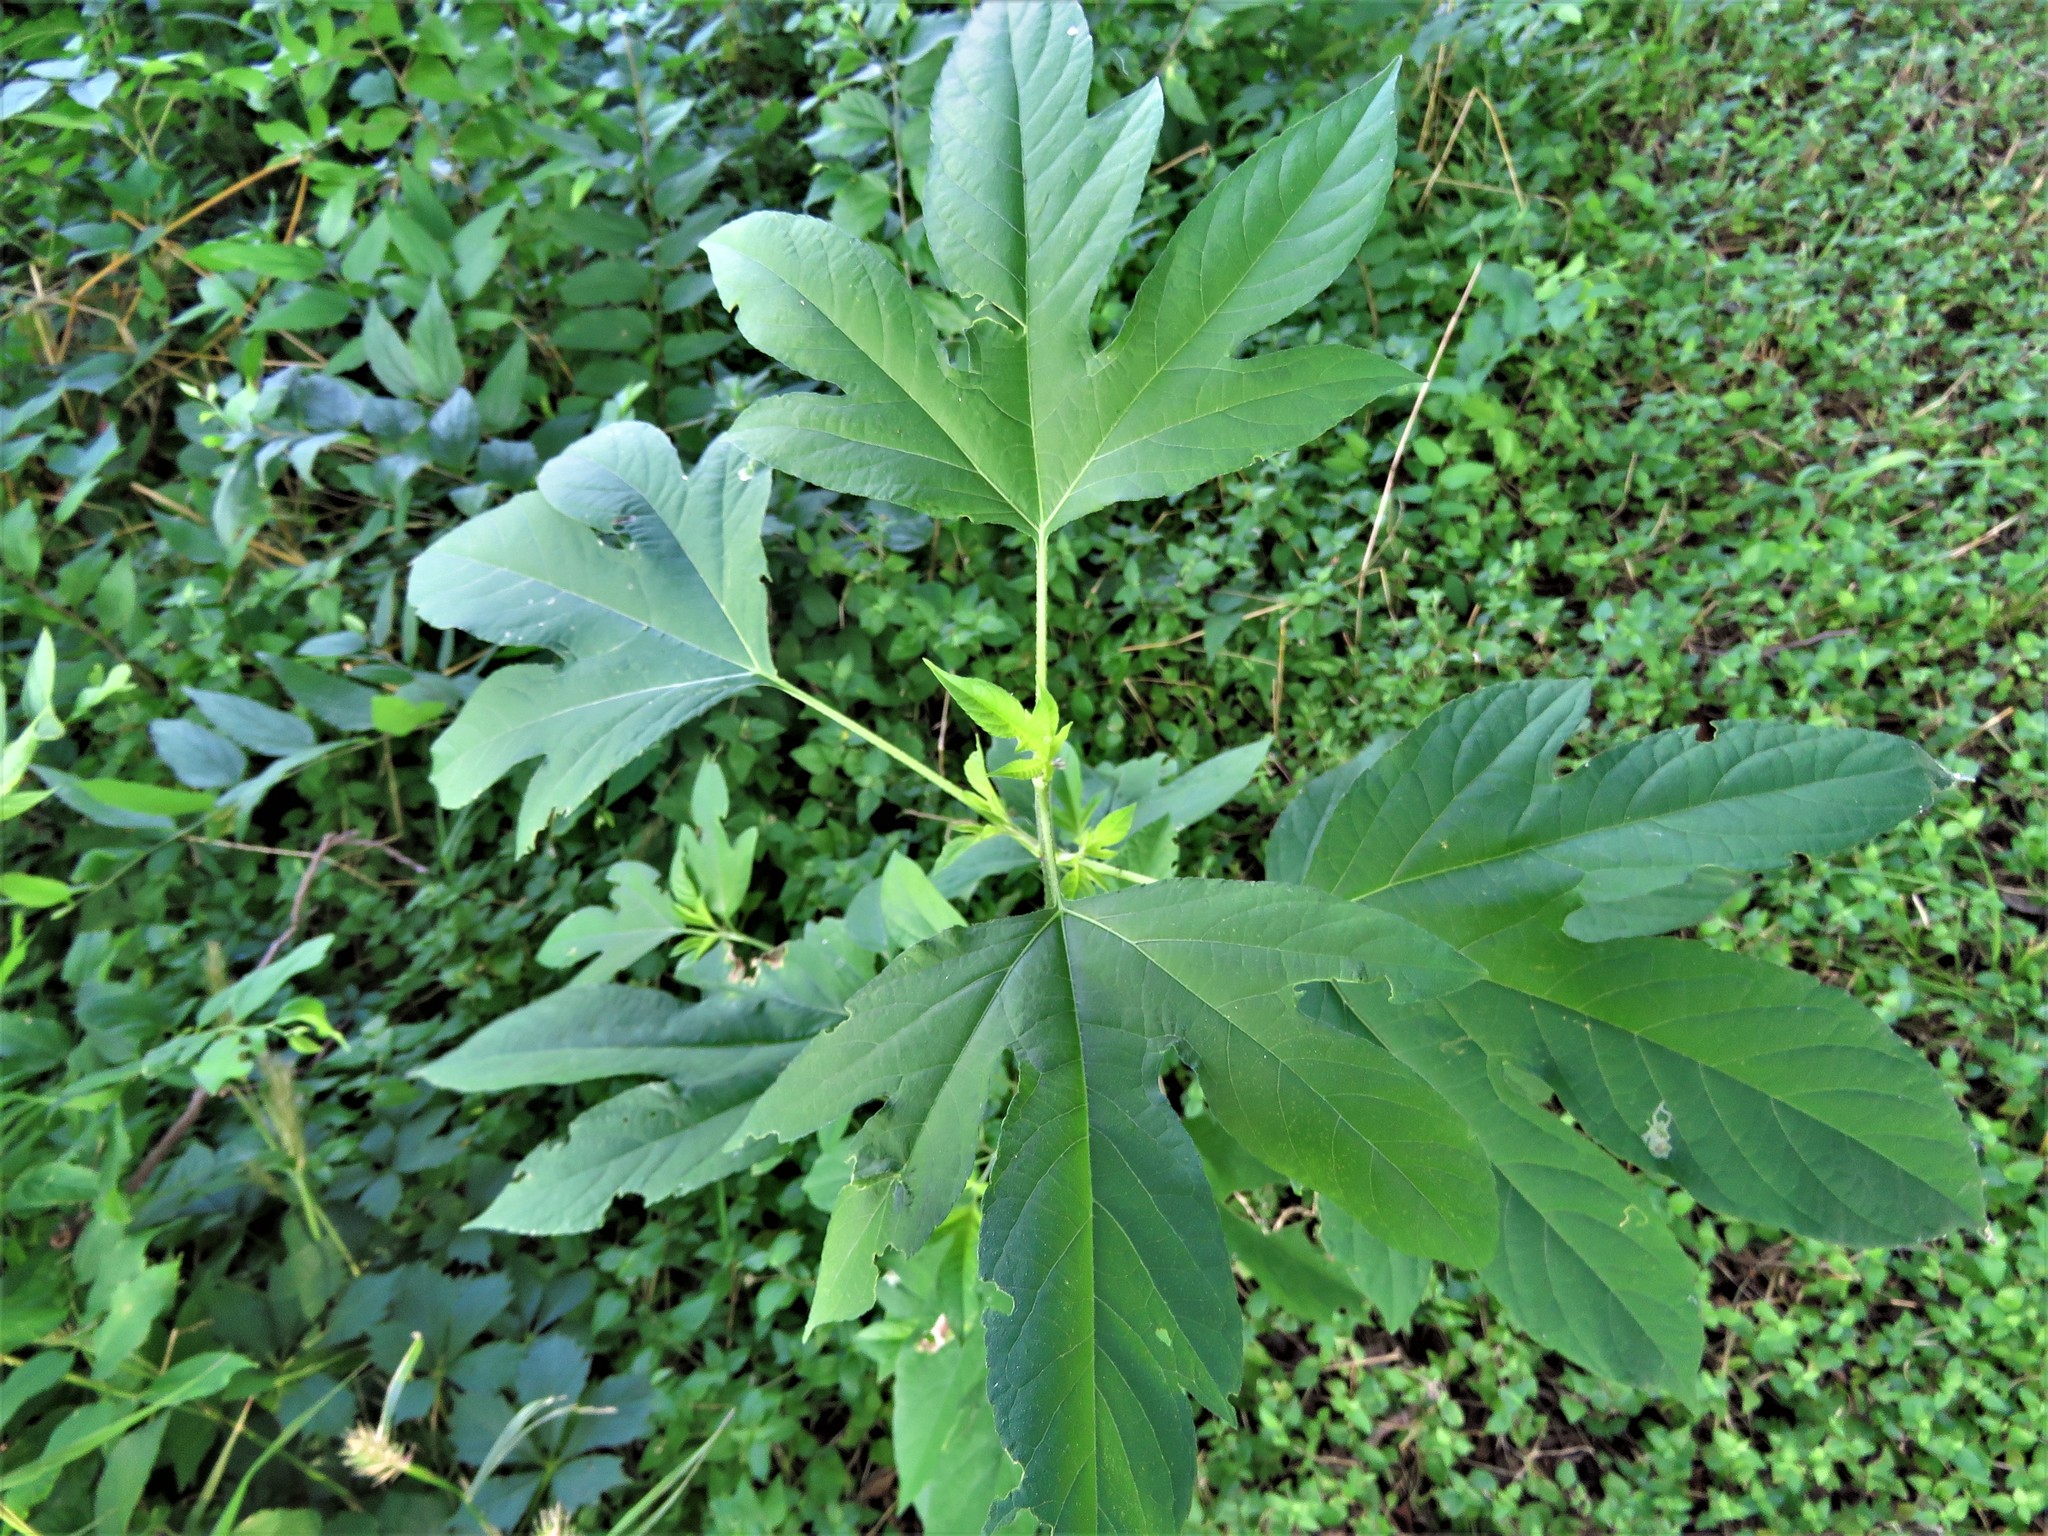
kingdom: Plantae
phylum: Tracheophyta
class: Magnoliopsida
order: Asterales
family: Asteraceae
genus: Ambrosia
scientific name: Ambrosia trifida
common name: Giant ragweed
